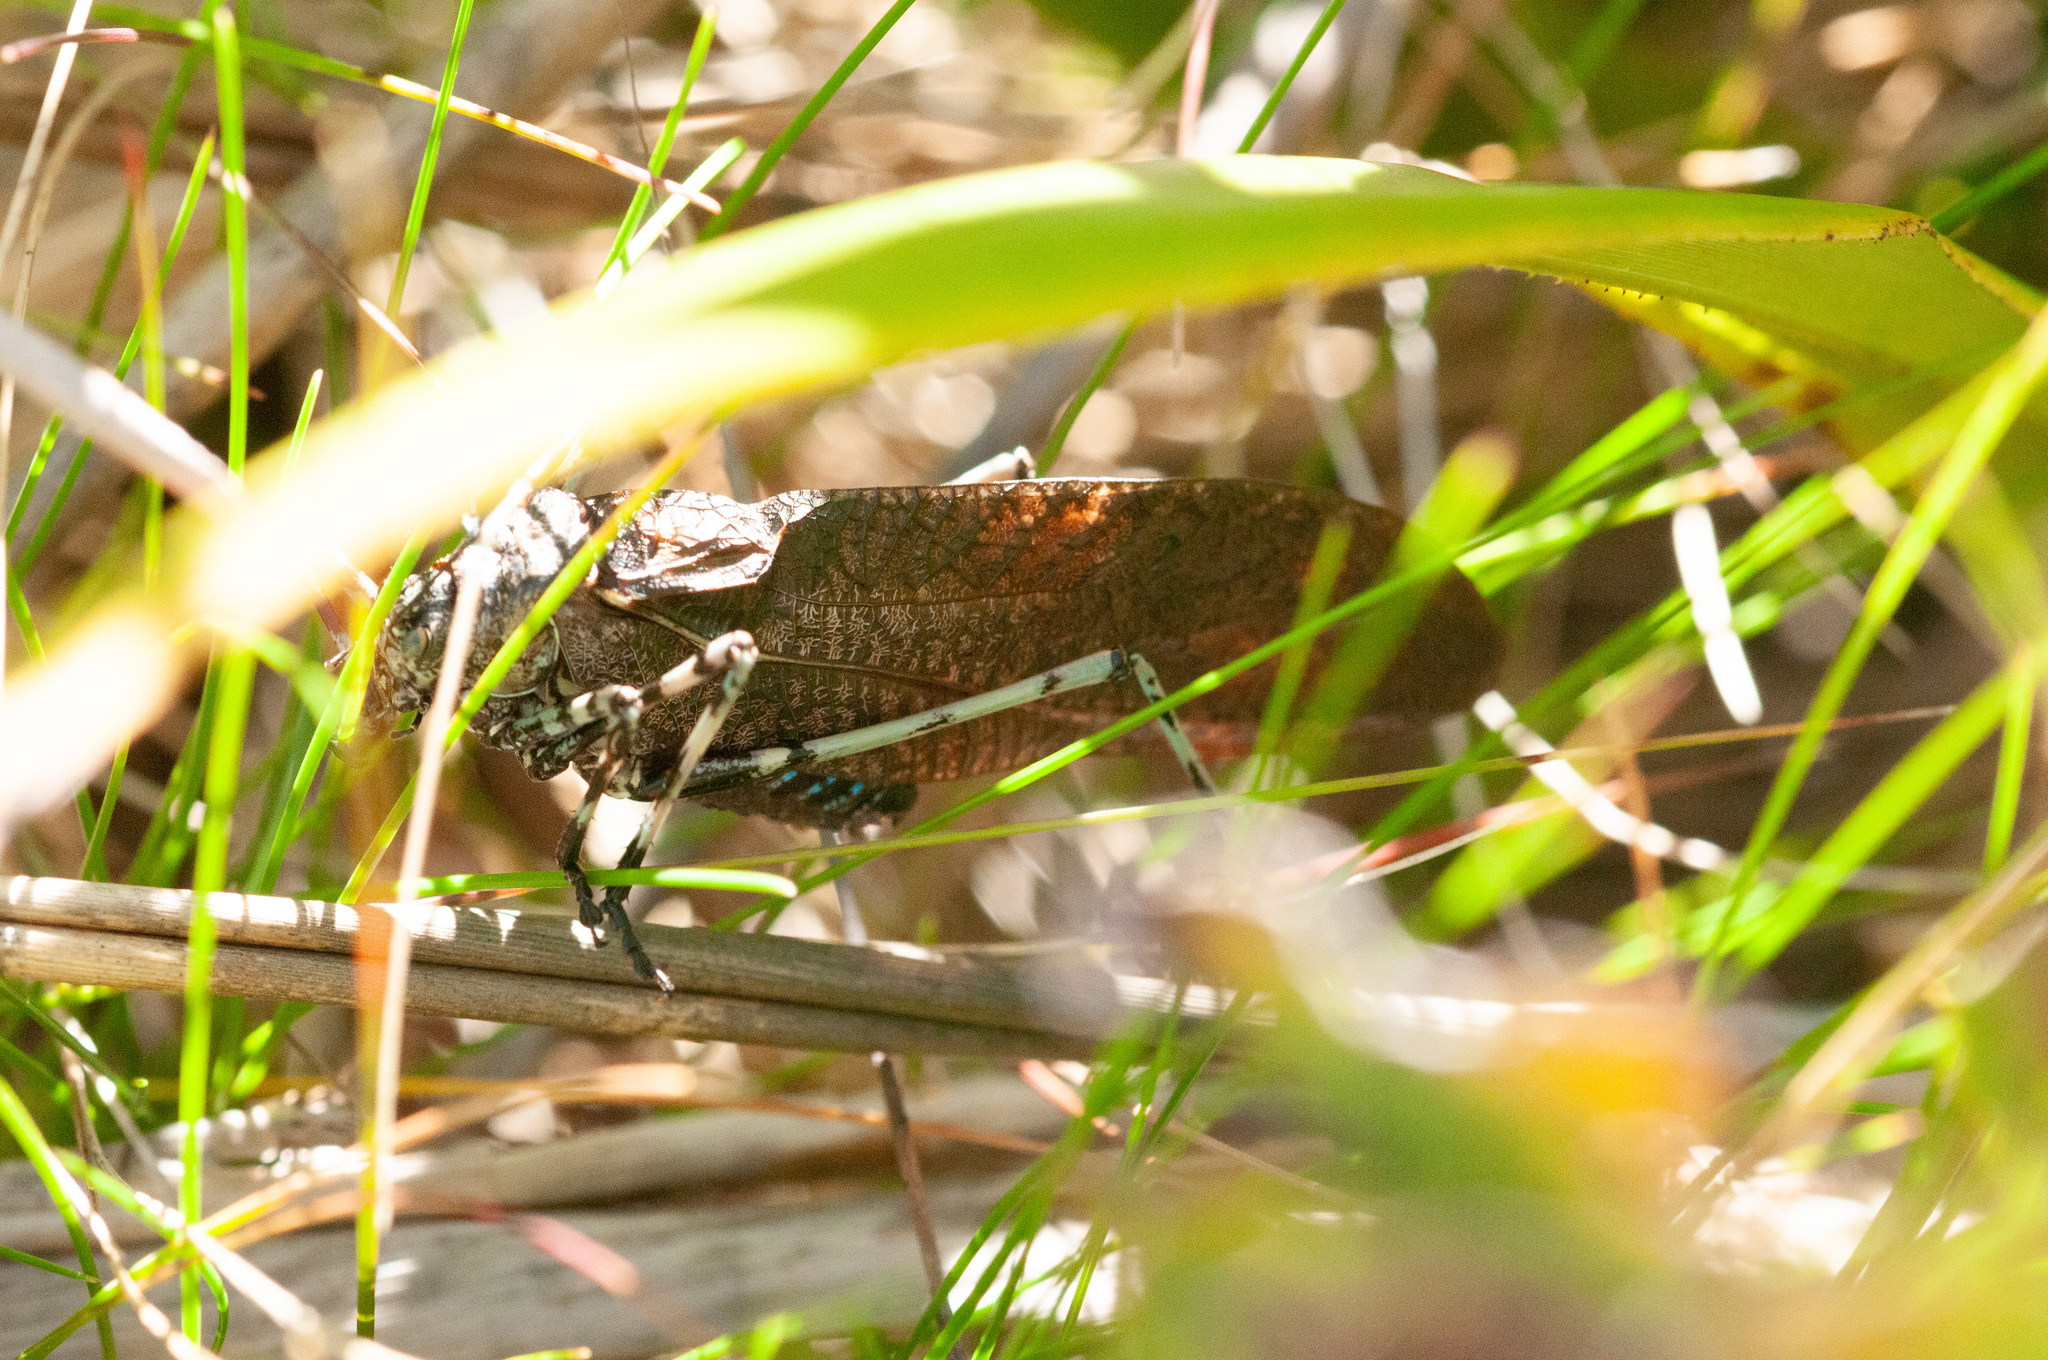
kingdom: Animalia
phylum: Arthropoda
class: Insecta
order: Orthoptera
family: Tettigoniidae
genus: Acripeza
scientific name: Acripeza reticulata
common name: Mountain katydid
